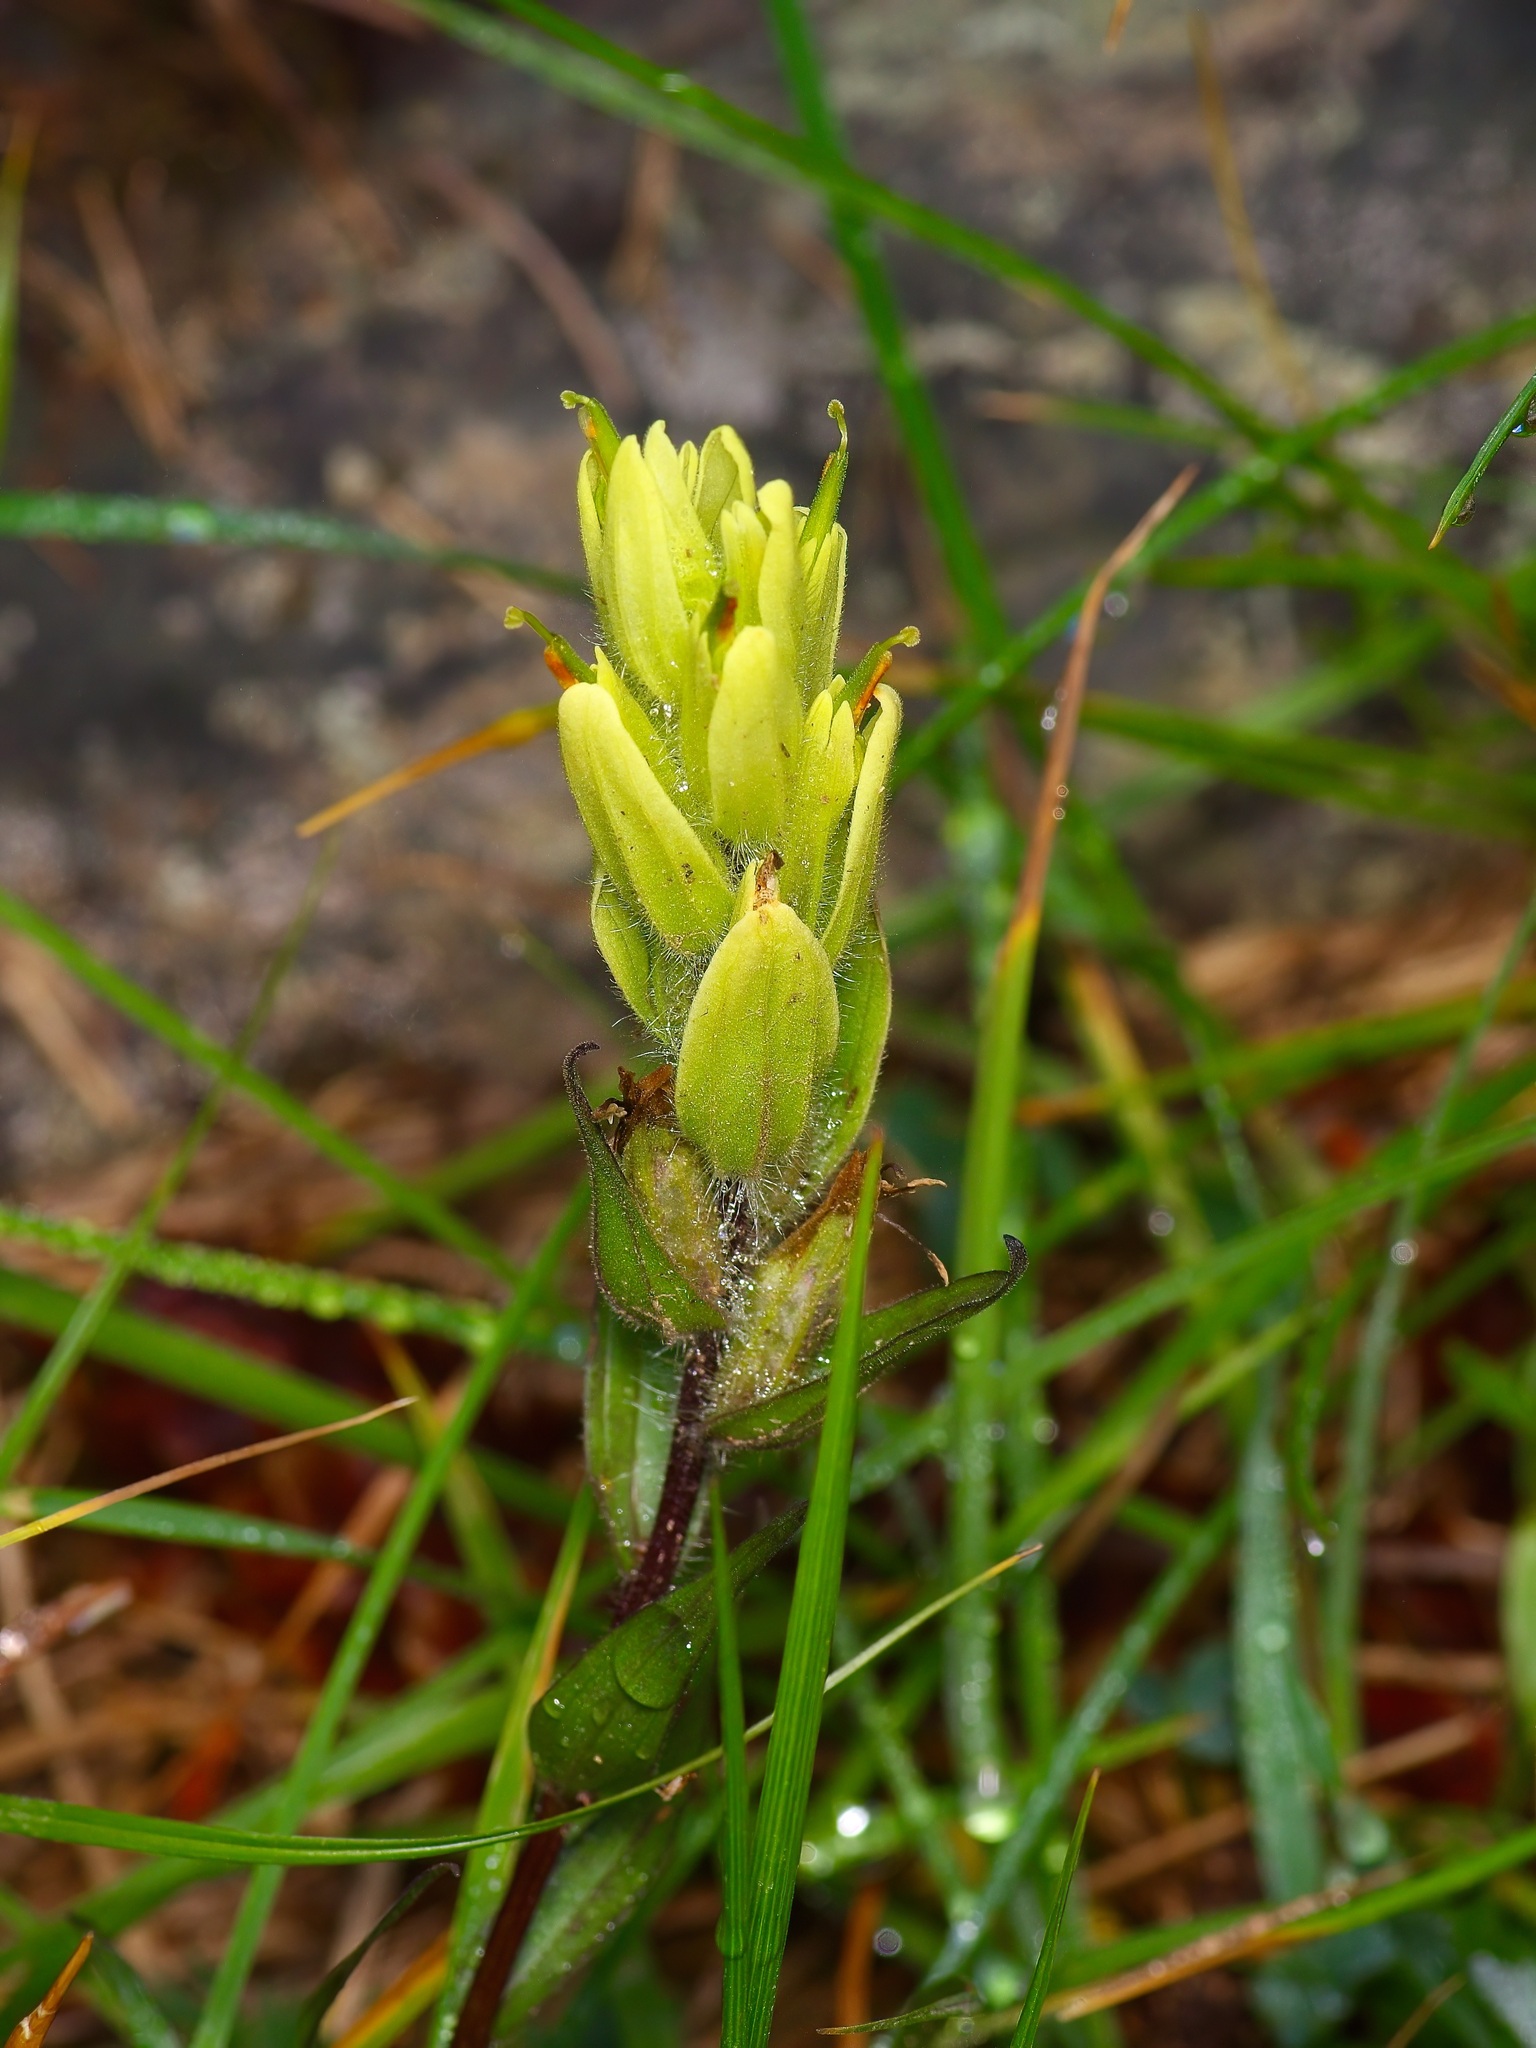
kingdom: Plantae
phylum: Tracheophyta
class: Magnoliopsida
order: Lamiales
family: Orobanchaceae
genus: Castilleja
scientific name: Castilleja septentrionalis
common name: Northeastern paintbrush
